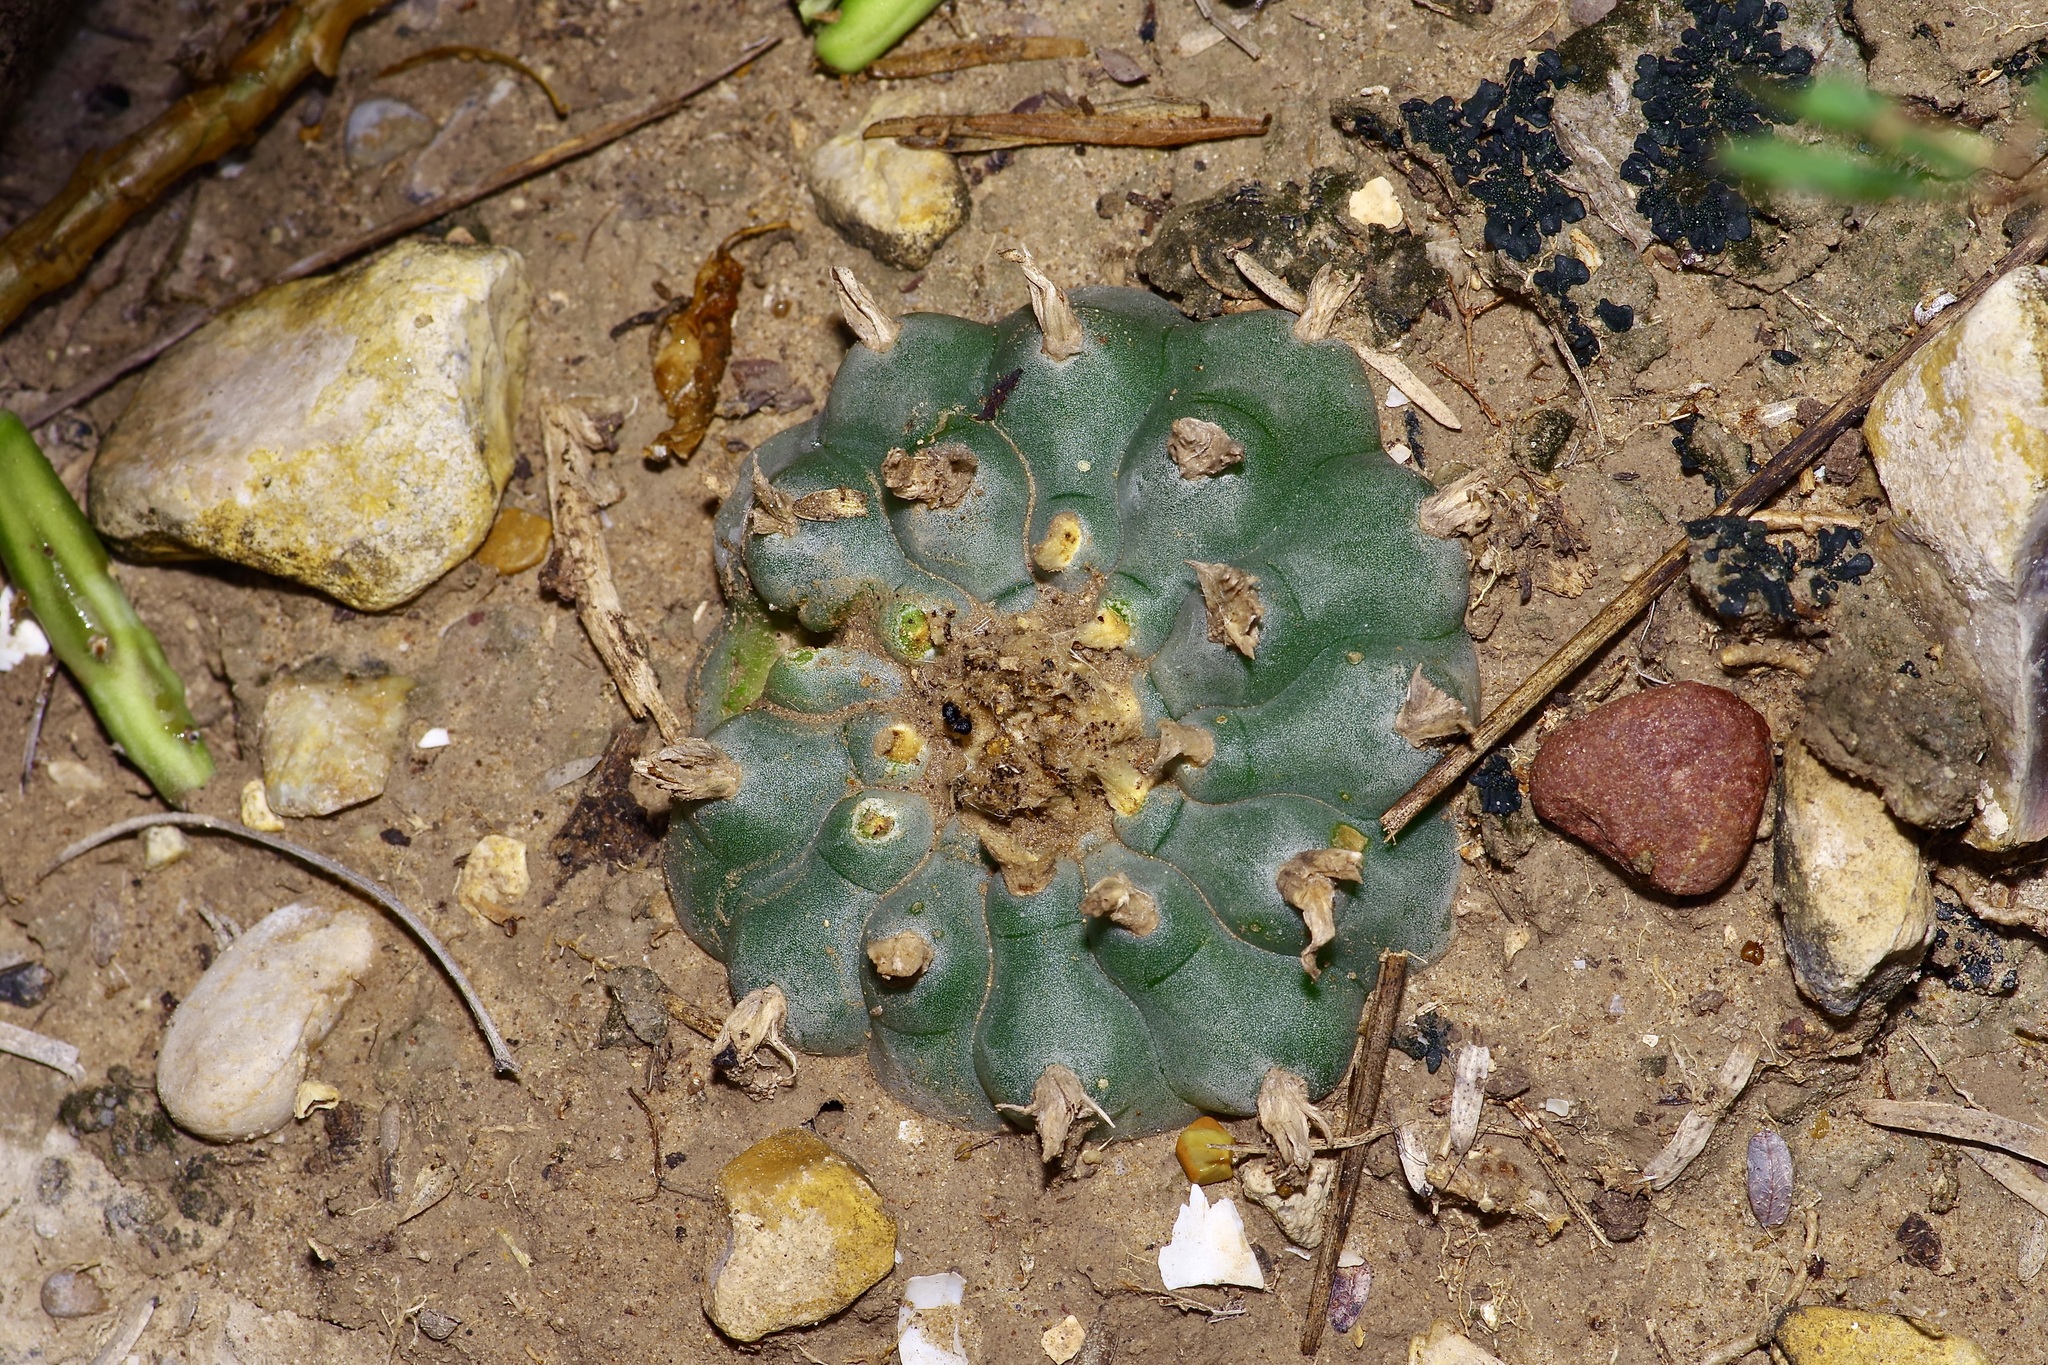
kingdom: Plantae
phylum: Tracheophyta
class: Magnoliopsida
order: Caryophyllales
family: Cactaceae
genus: Lophophora
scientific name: Lophophora williamsii
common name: Indian-dope
